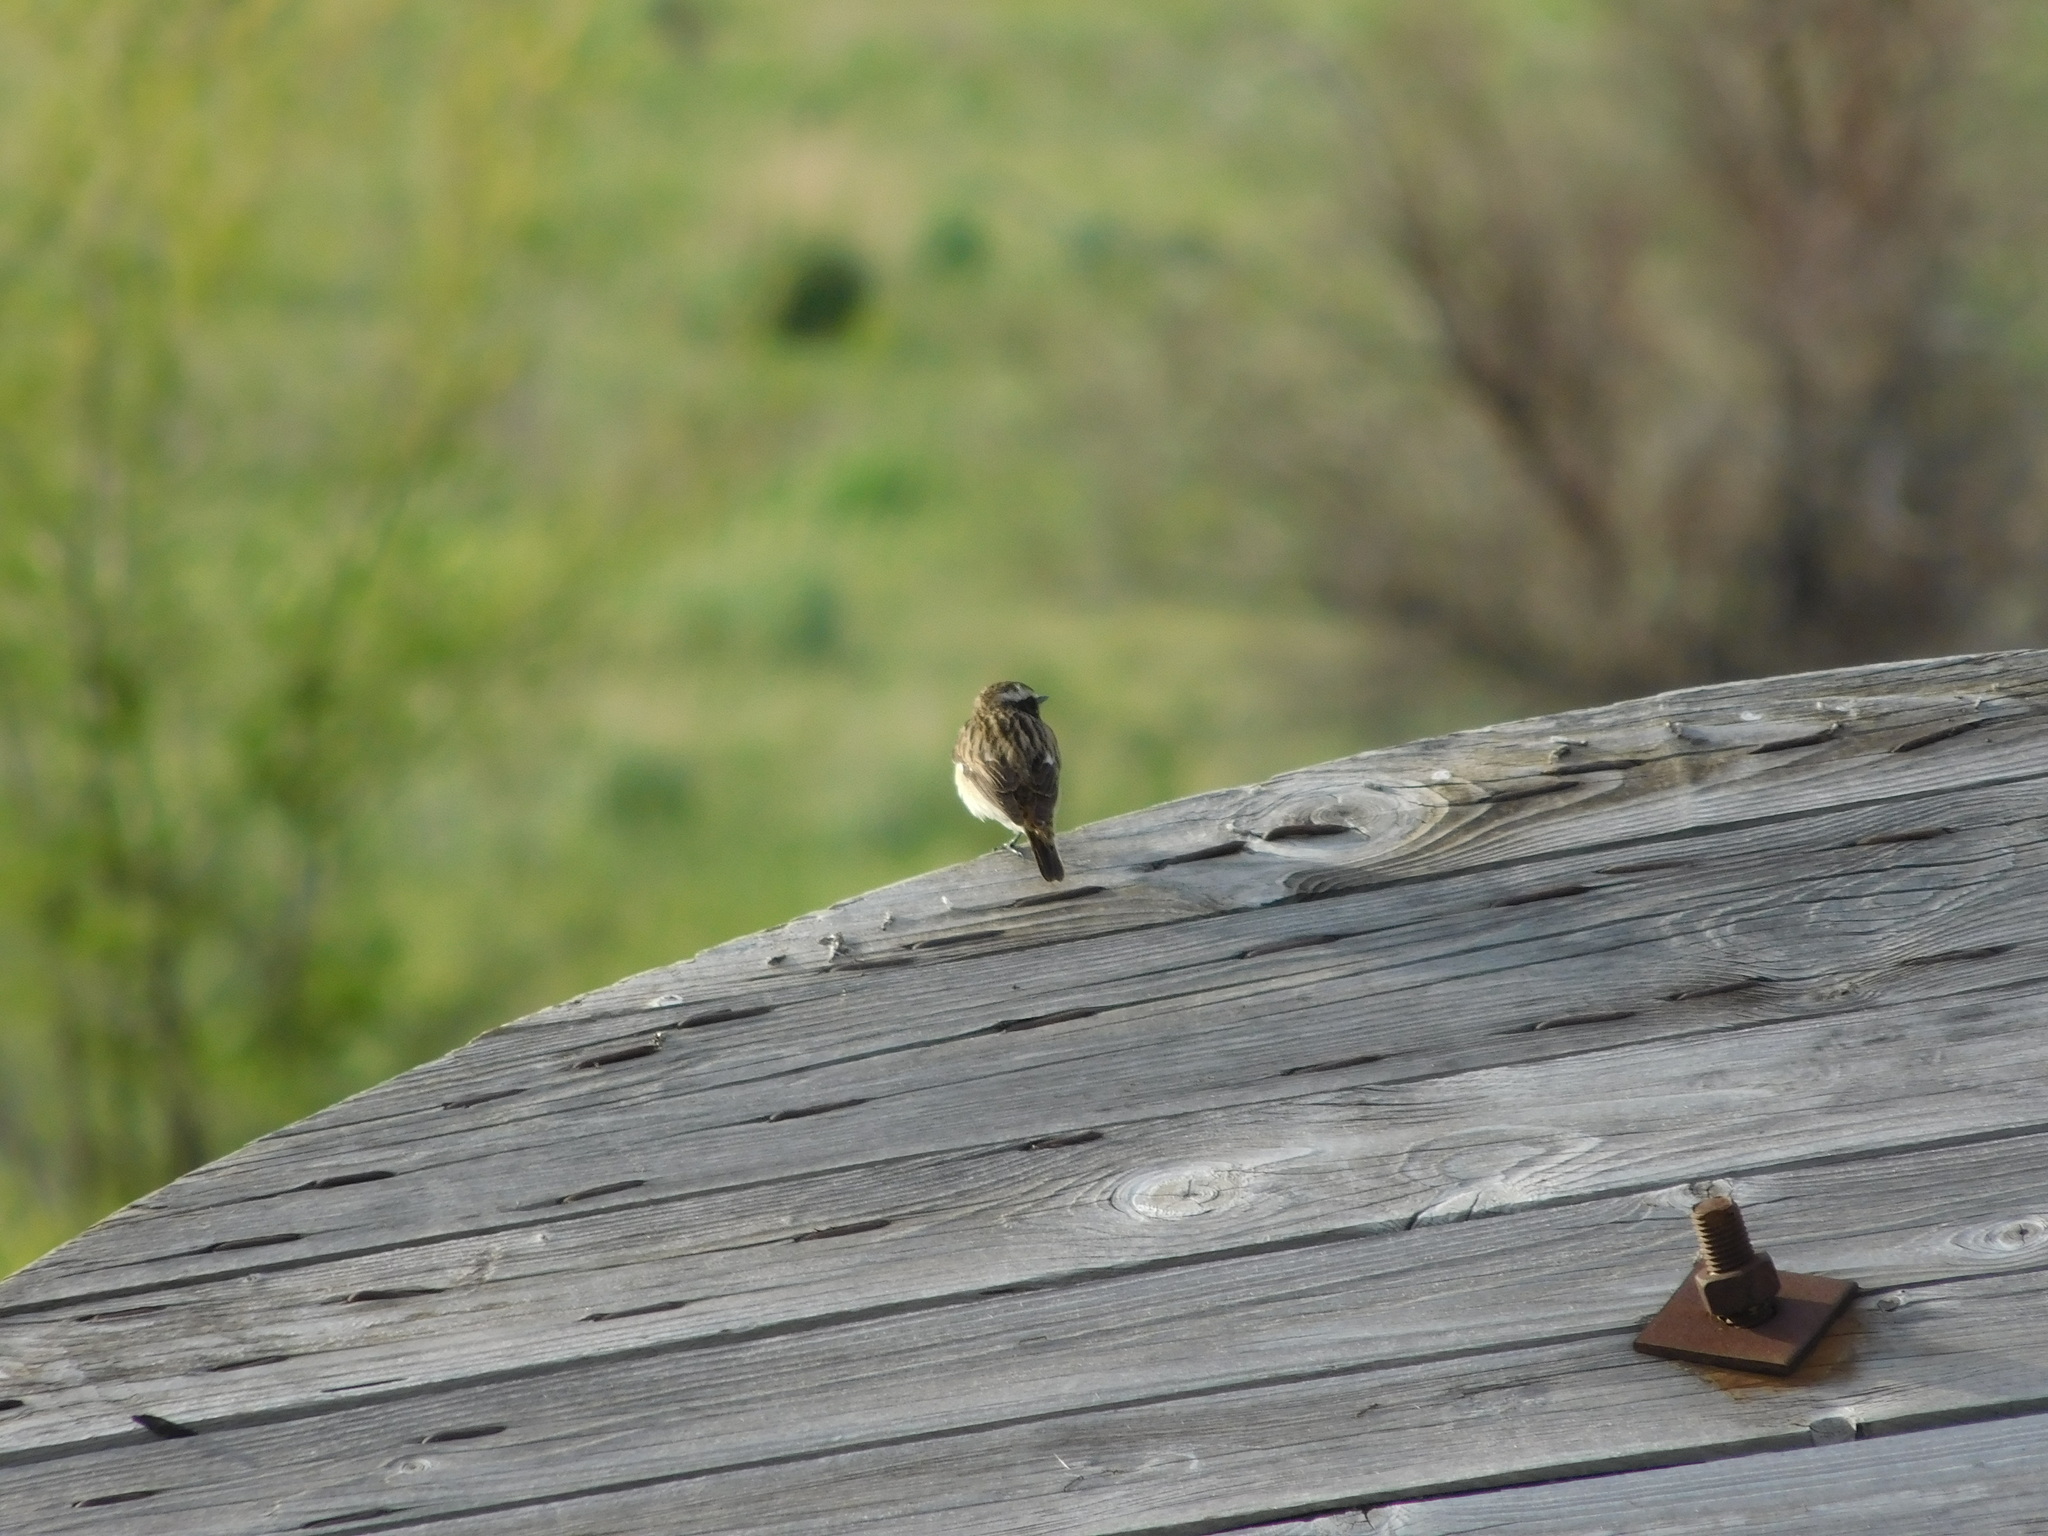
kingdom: Animalia
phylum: Chordata
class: Aves
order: Passeriformes
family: Muscicapidae
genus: Saxicola
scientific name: Saxicola rubetra
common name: Whinchat
